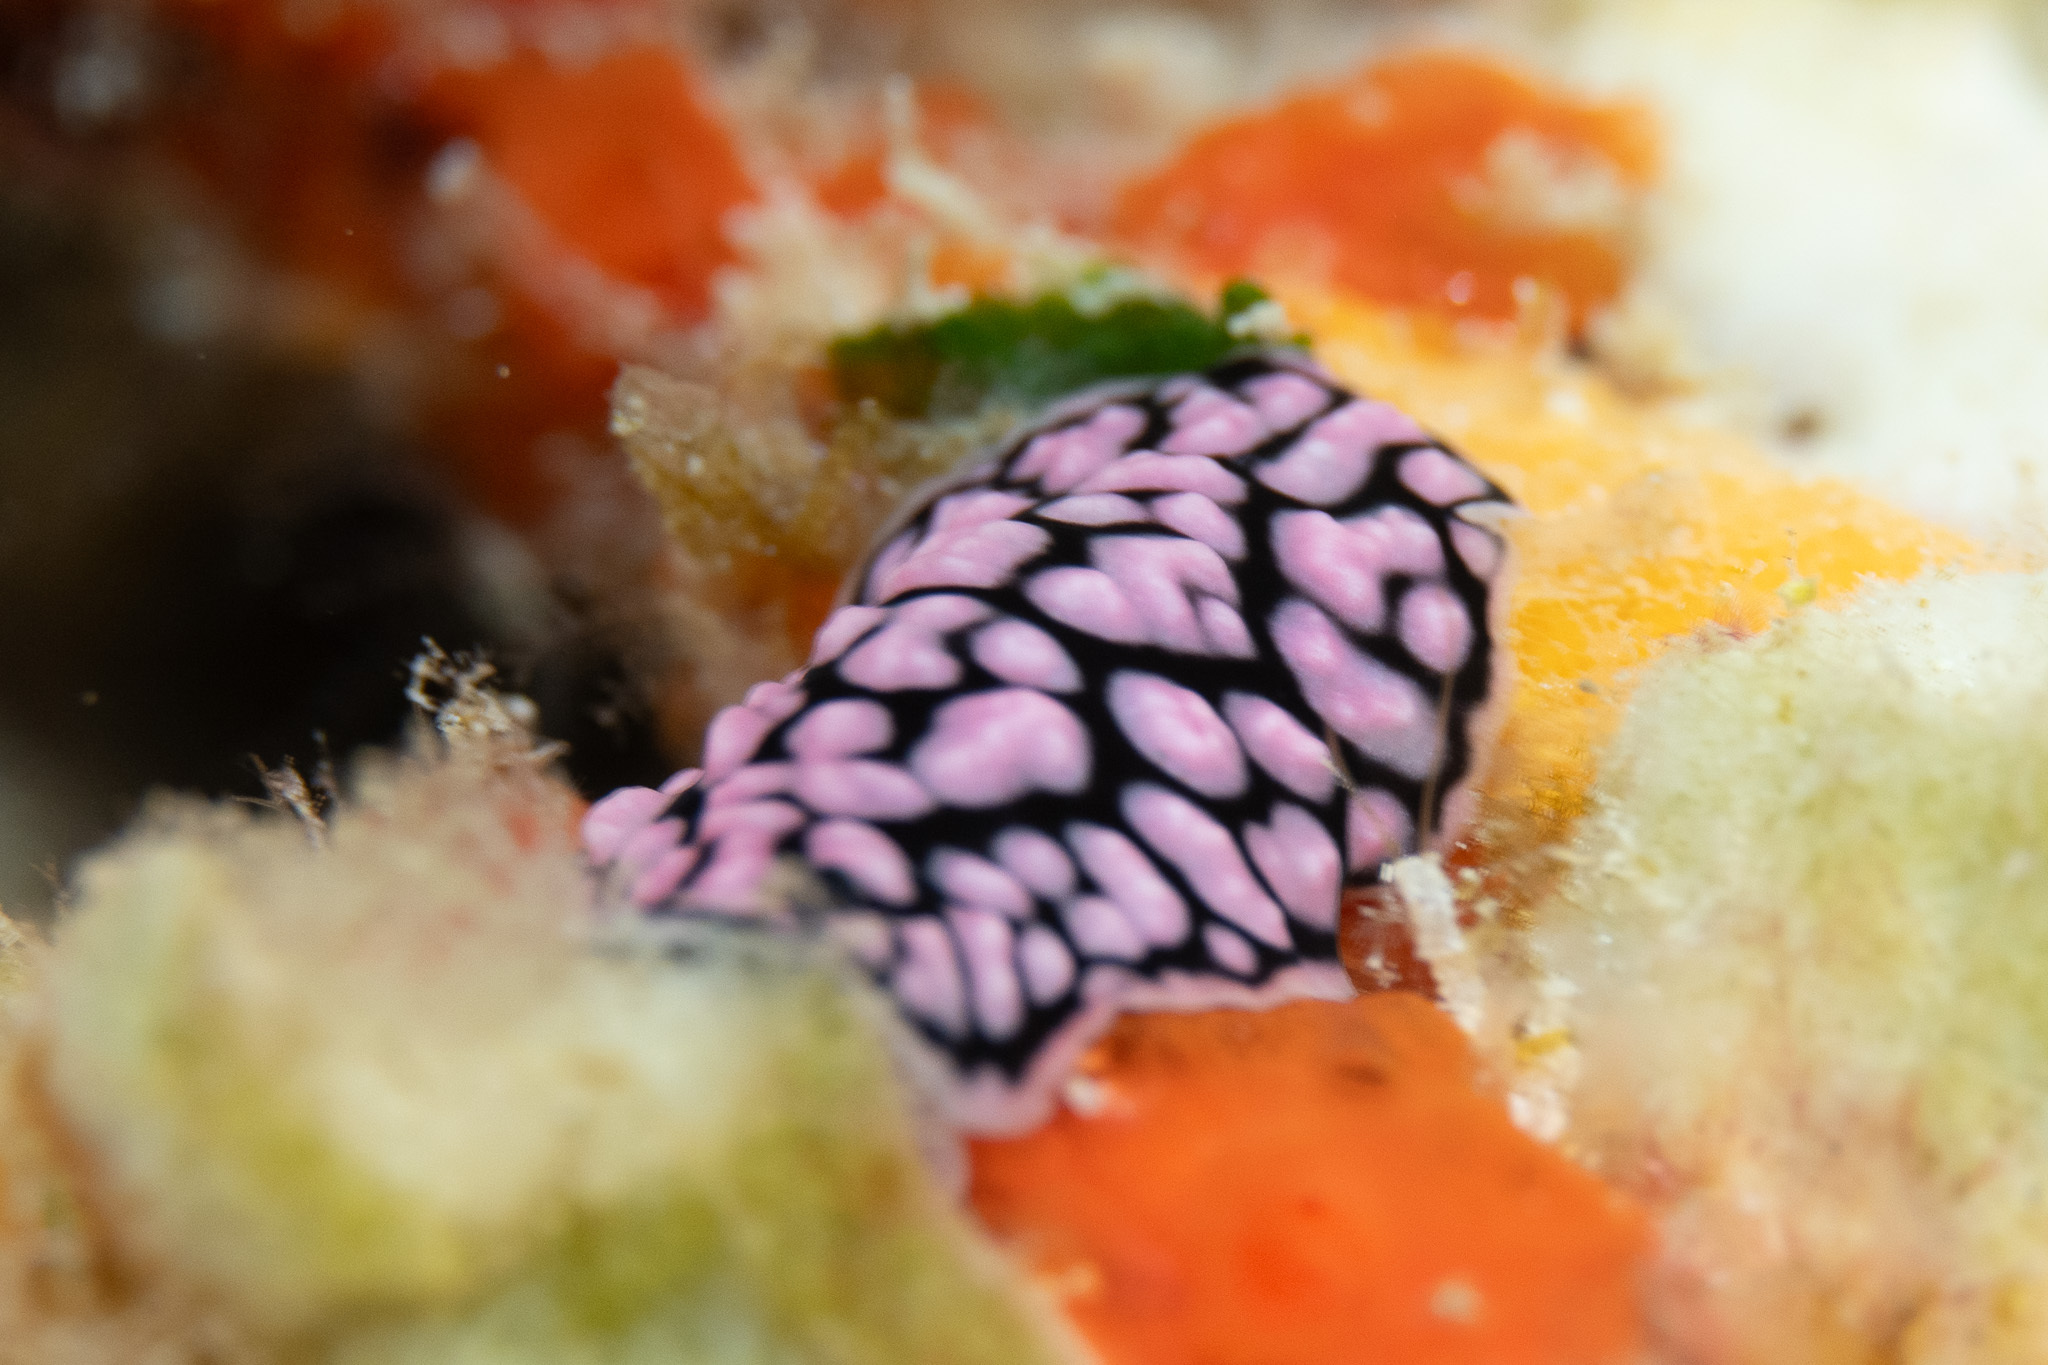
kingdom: Animalia
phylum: Mollusca
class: Gastropoda
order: Nudibranchia
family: Phyllidiidae
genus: Phyllidiella
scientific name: Phyllidiella pustulosa
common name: Pustular phyllidia
